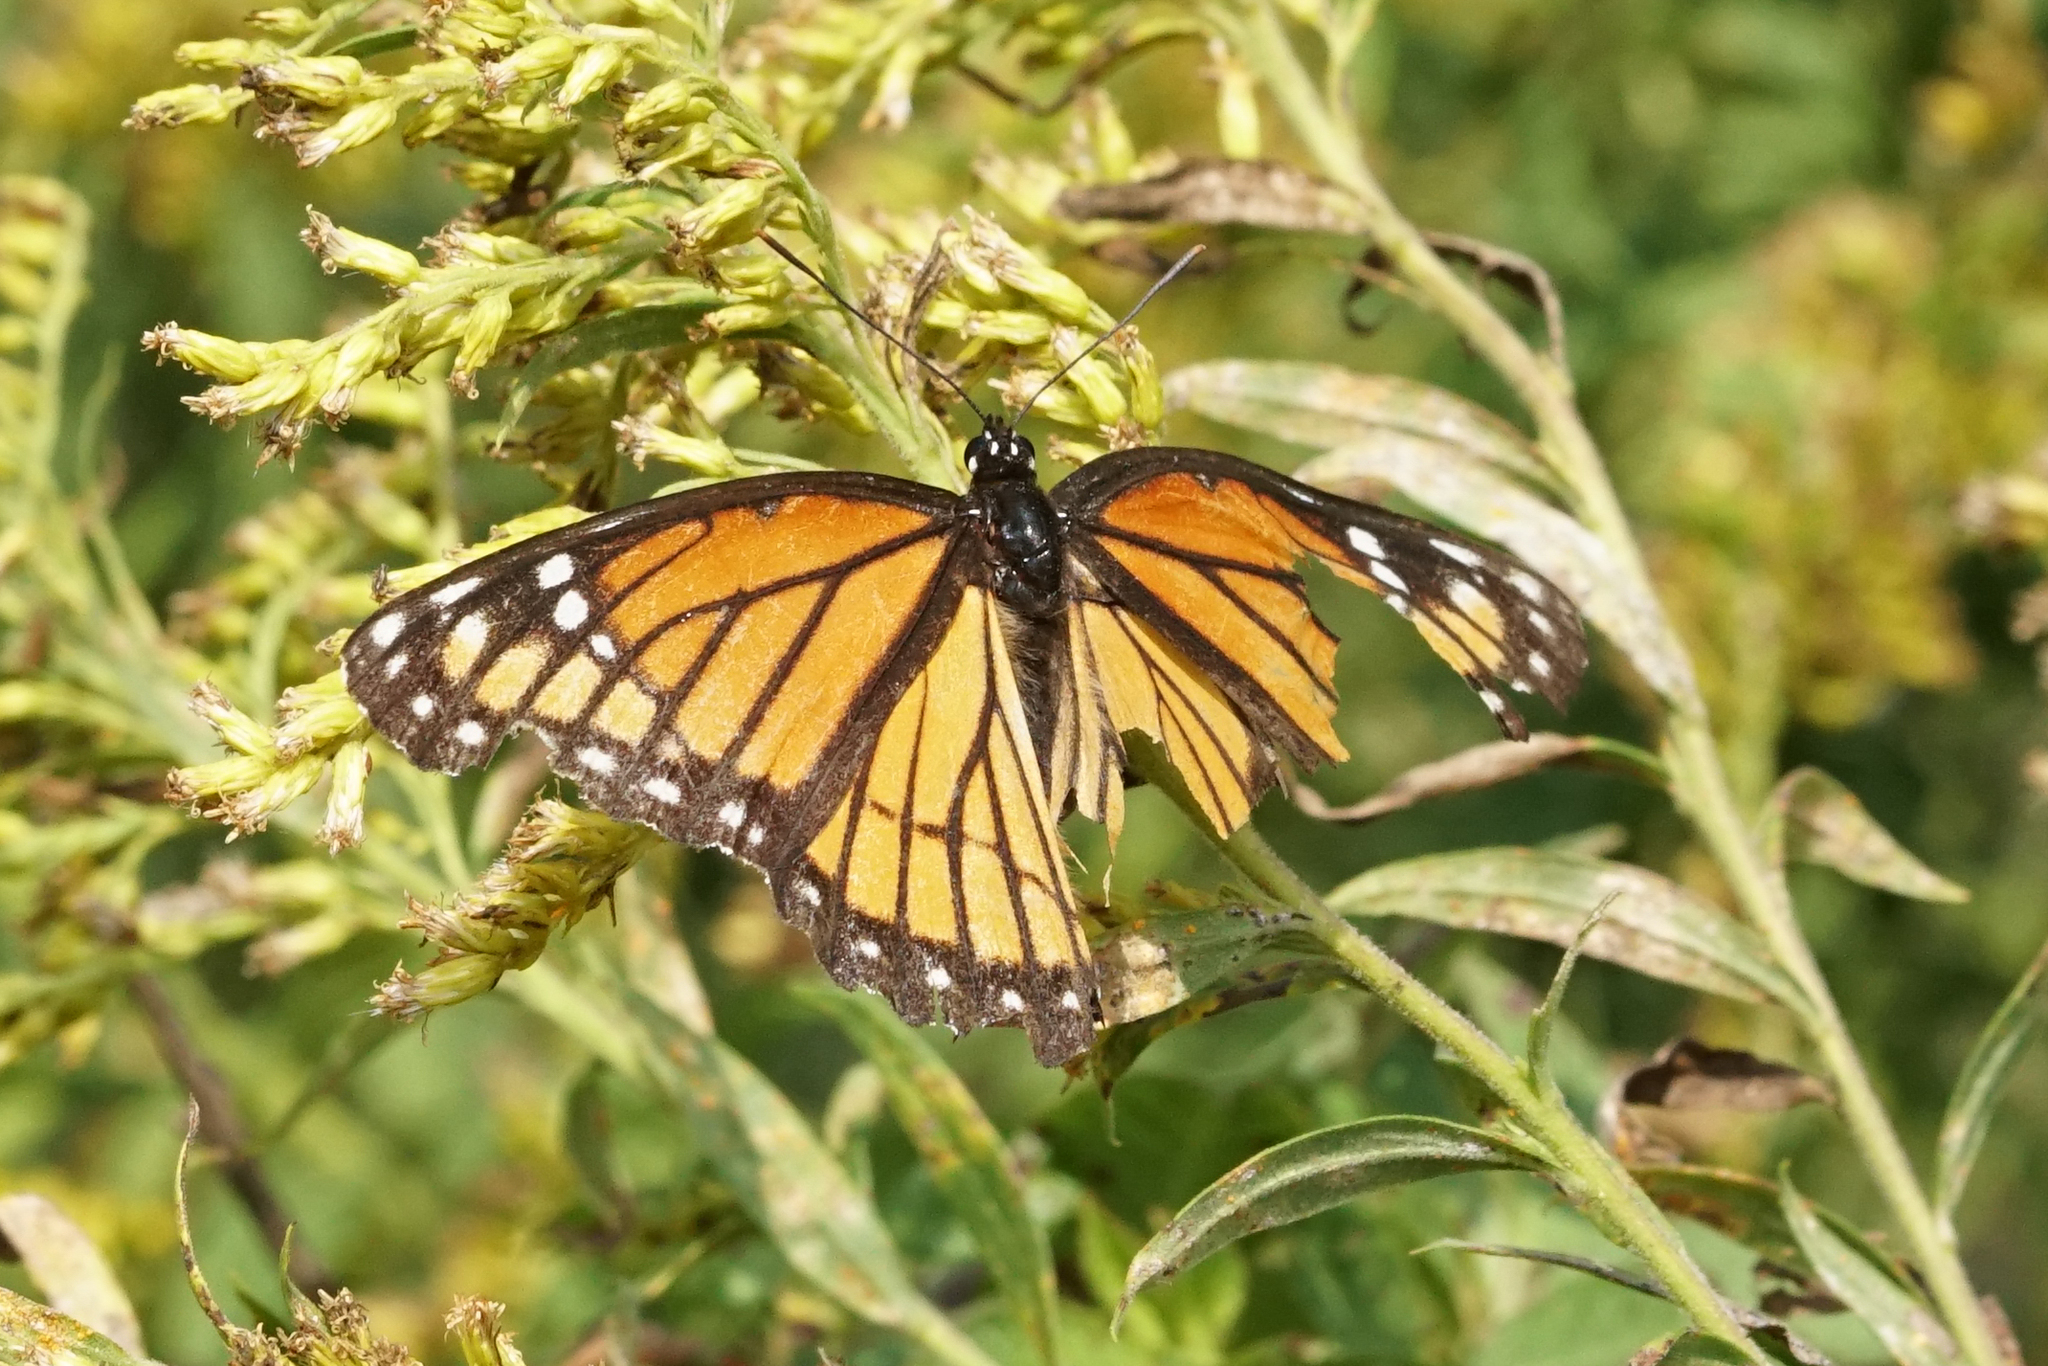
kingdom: Animalia
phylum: Arthropoda
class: Insecta
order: Lepidoptera
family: Nymphalidae
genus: Limenitis
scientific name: Limenitis archippus
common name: Viceroy
